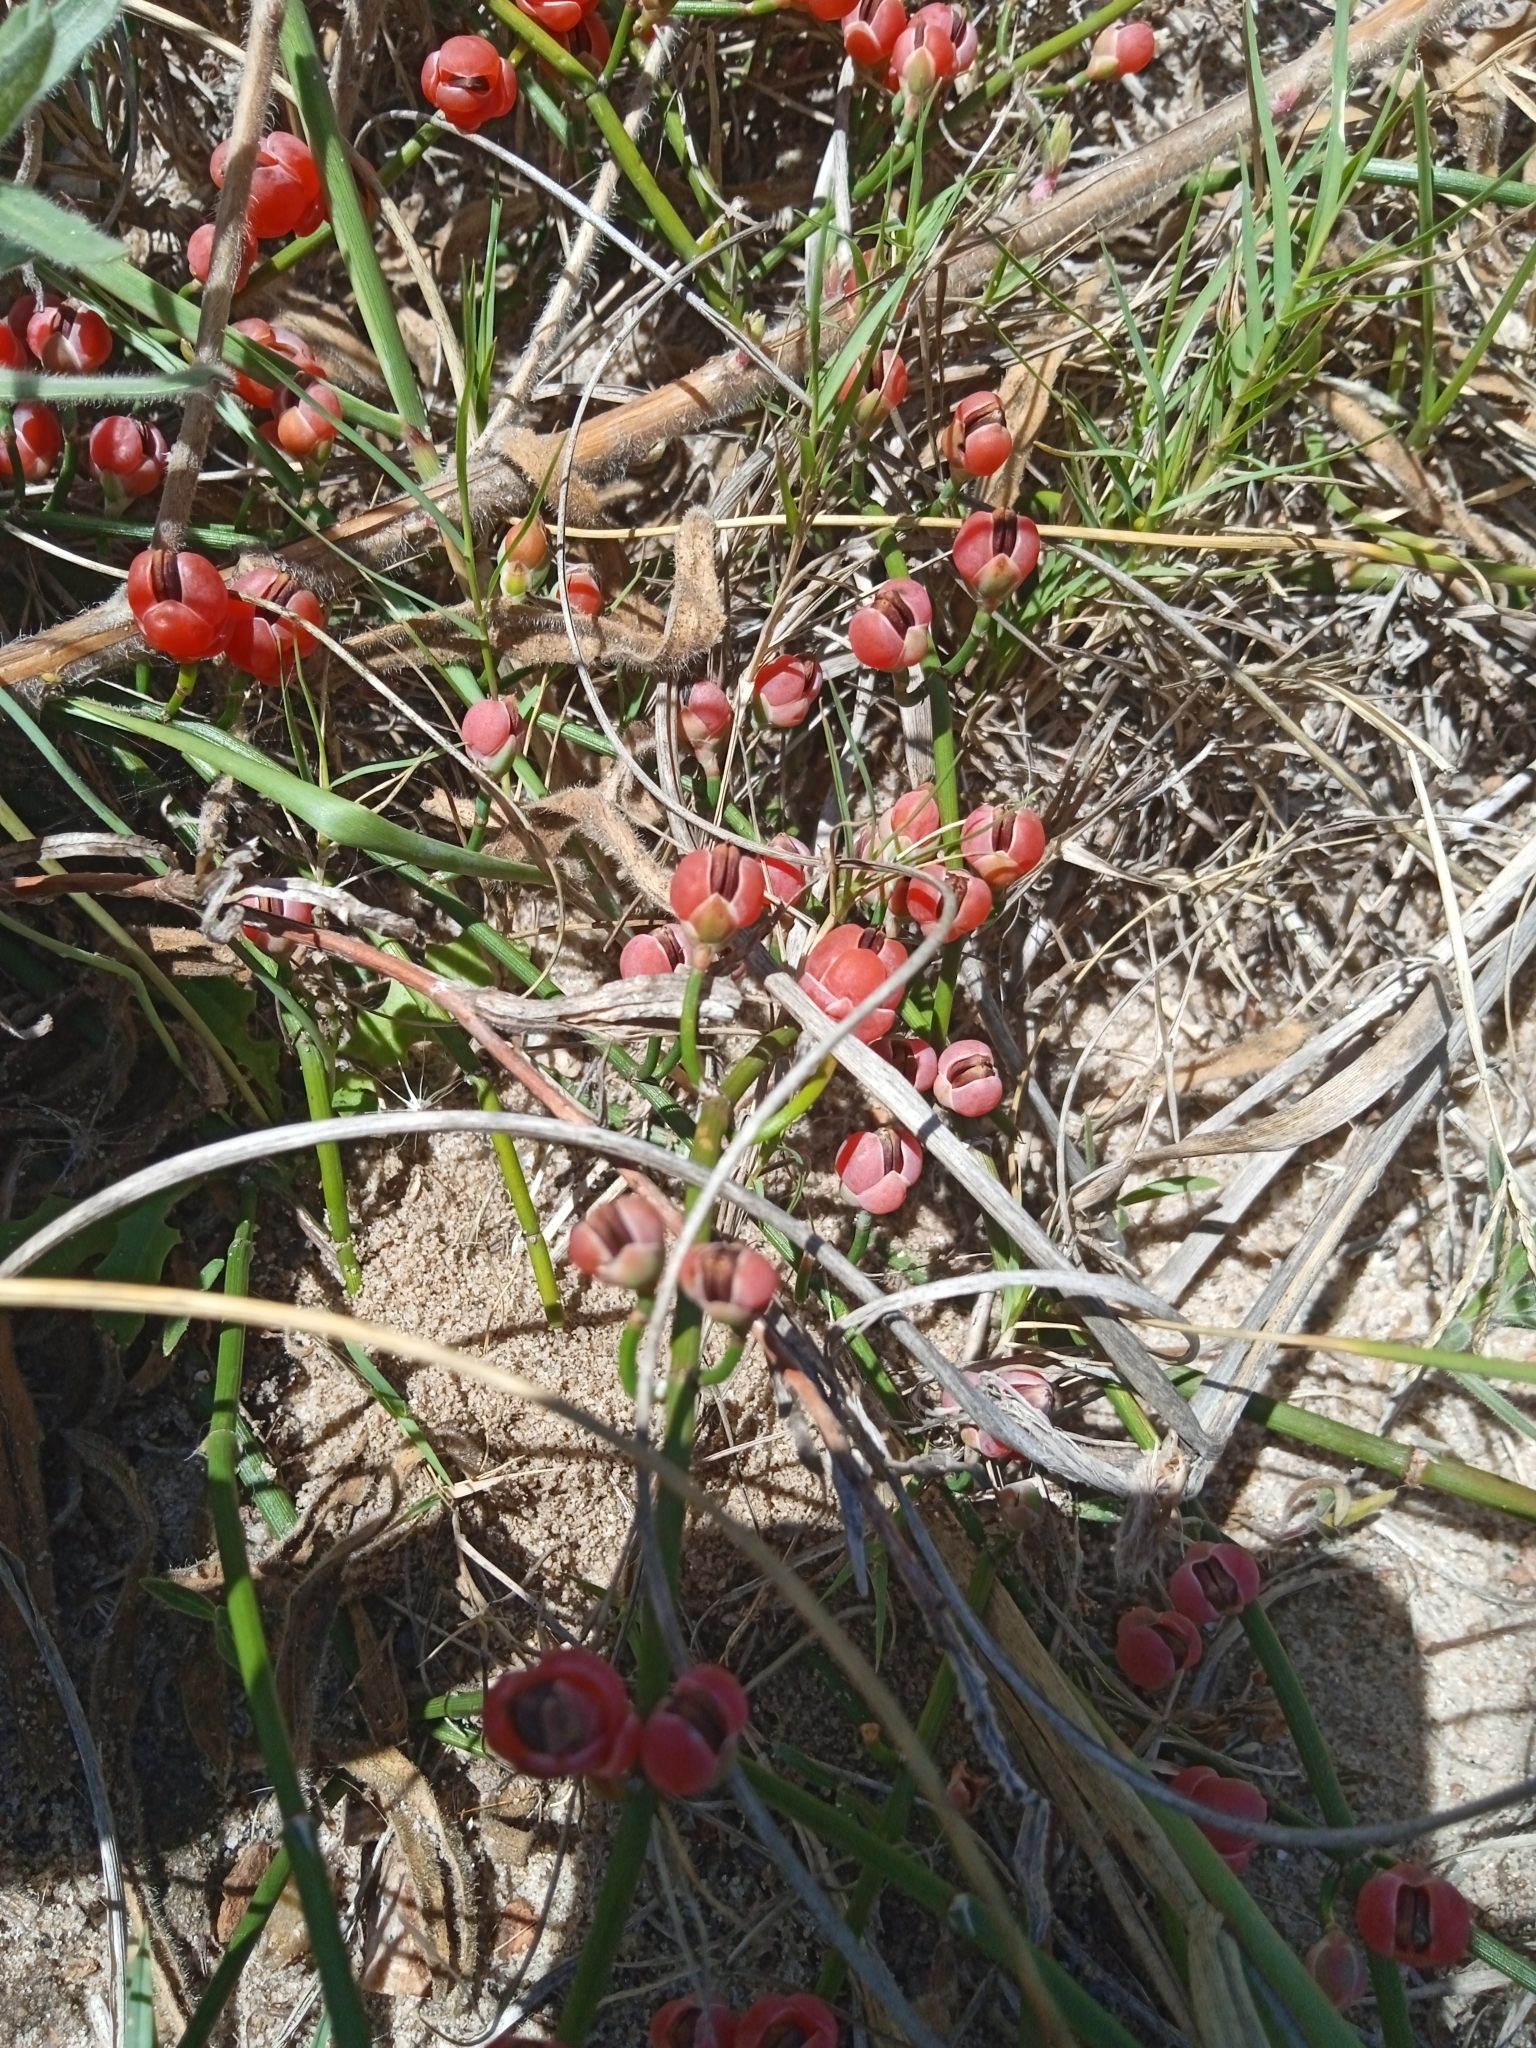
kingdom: Plantae
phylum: Tracheophyta
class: Gnetopsida
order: Ephedrales
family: Ephedraceae
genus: Ephedra
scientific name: Ephedra tweedieana
